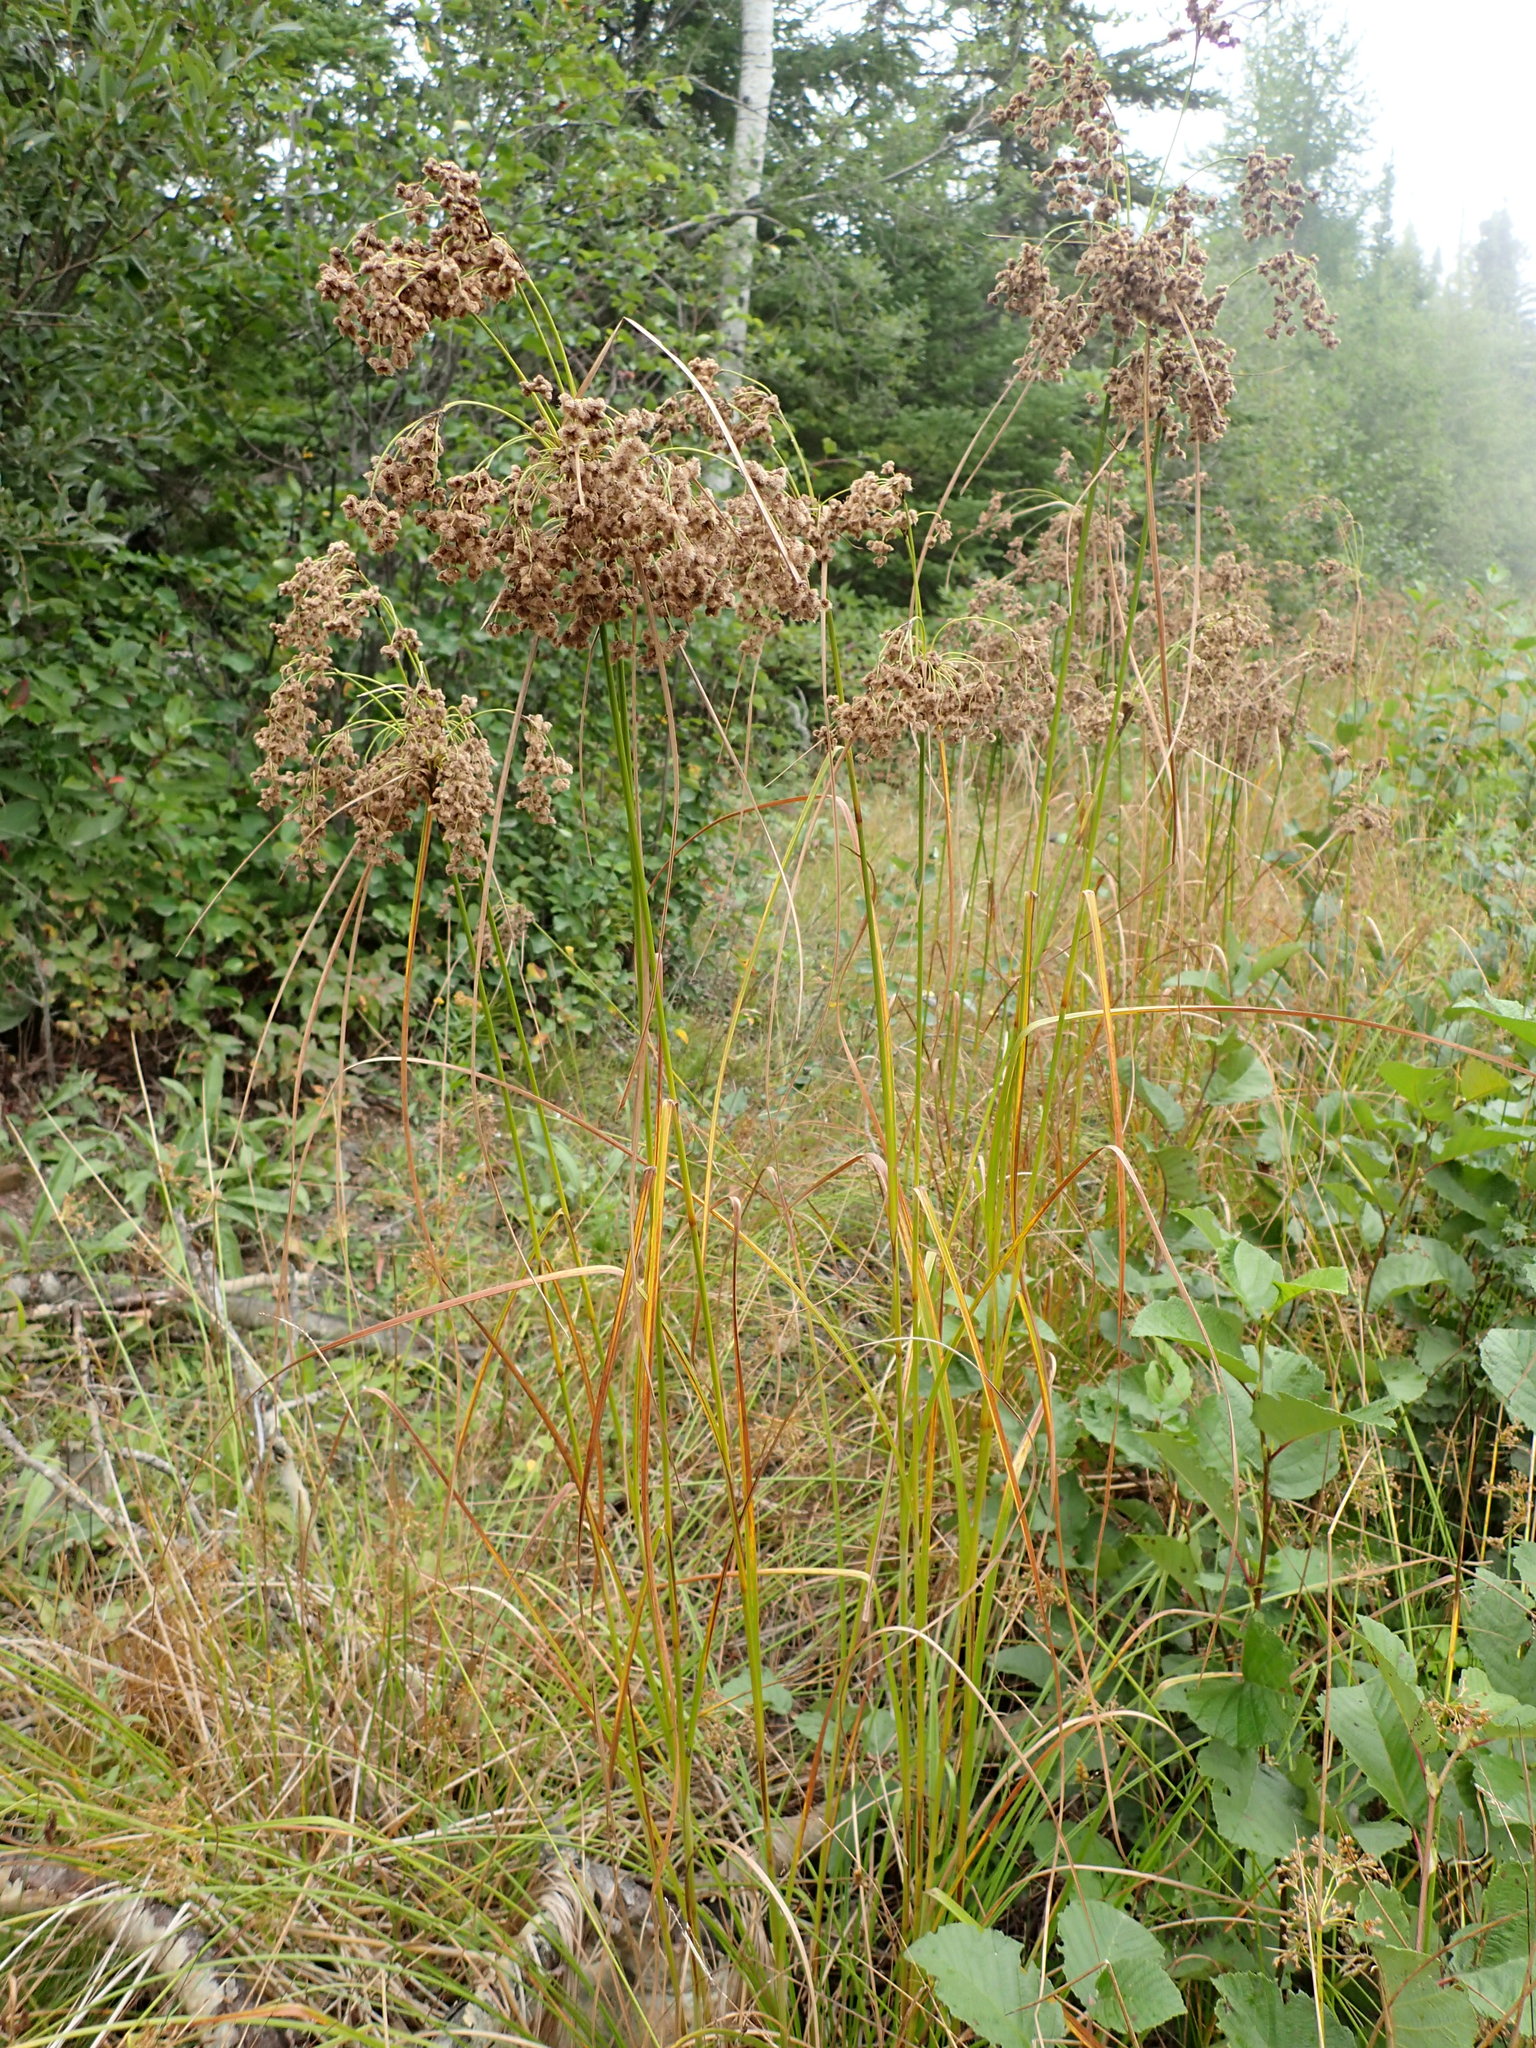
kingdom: Plantae
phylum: Tracheophyta
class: Liliopsida
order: Poales
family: Cyperaceae
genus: Scirpus
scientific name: Scirpus cyperinus
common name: Black-sheathed bulrush
